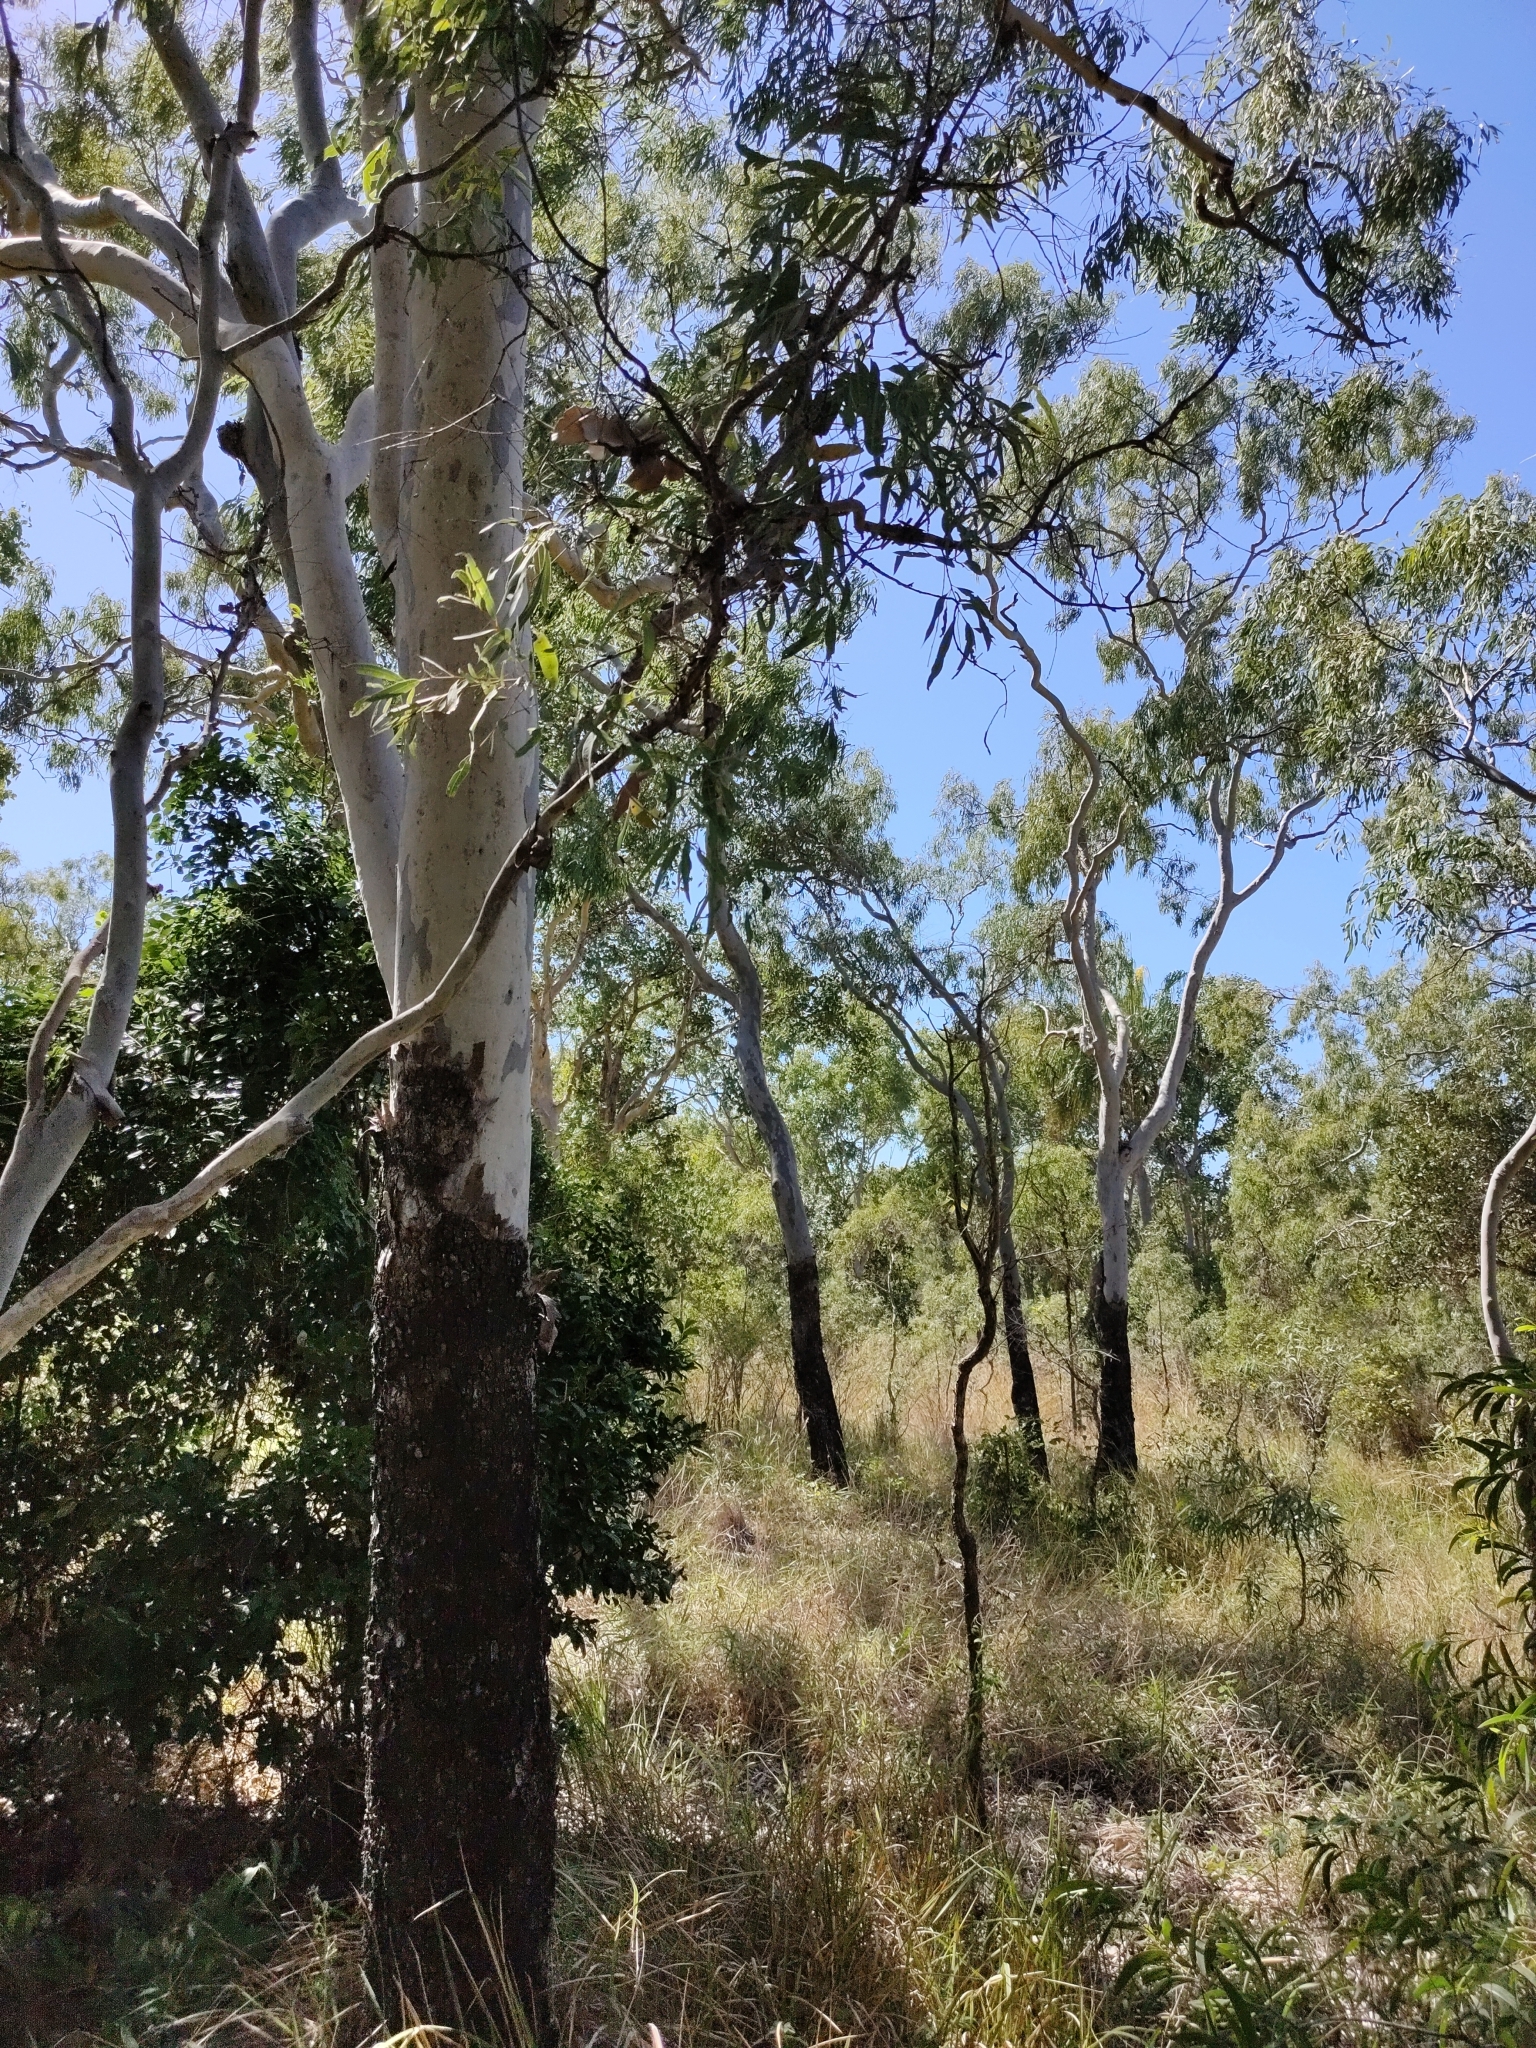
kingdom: Plantae
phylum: Tracheophyta
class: Magnoliopsida
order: Myrtales
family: Myrtaceae
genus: Corymbia
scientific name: Corymbia tessellaris
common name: Carbeen
